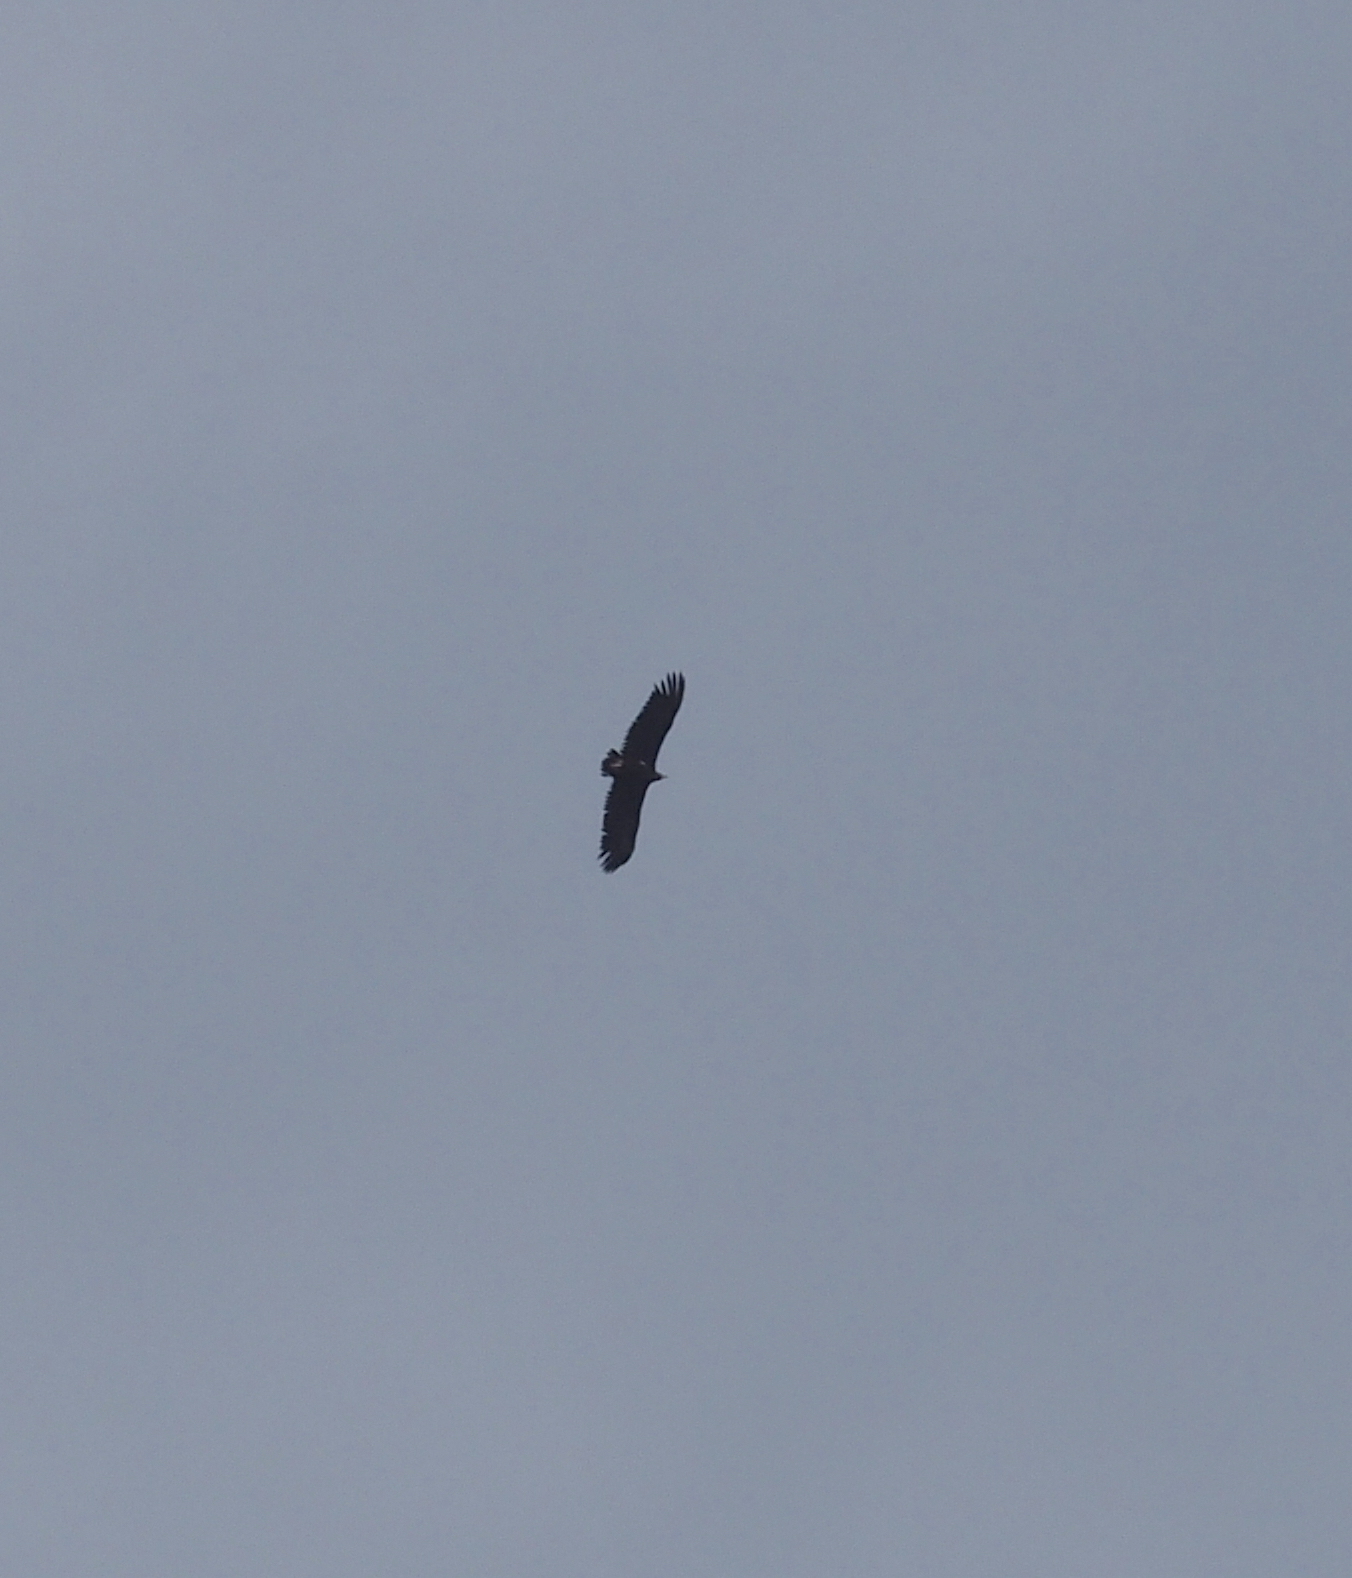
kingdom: Animalia
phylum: Chordata
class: Aves
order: Accipitriformes
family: Accipitridae
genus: Aegypius
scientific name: Aegypius monachus
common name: Cinereous vulture
